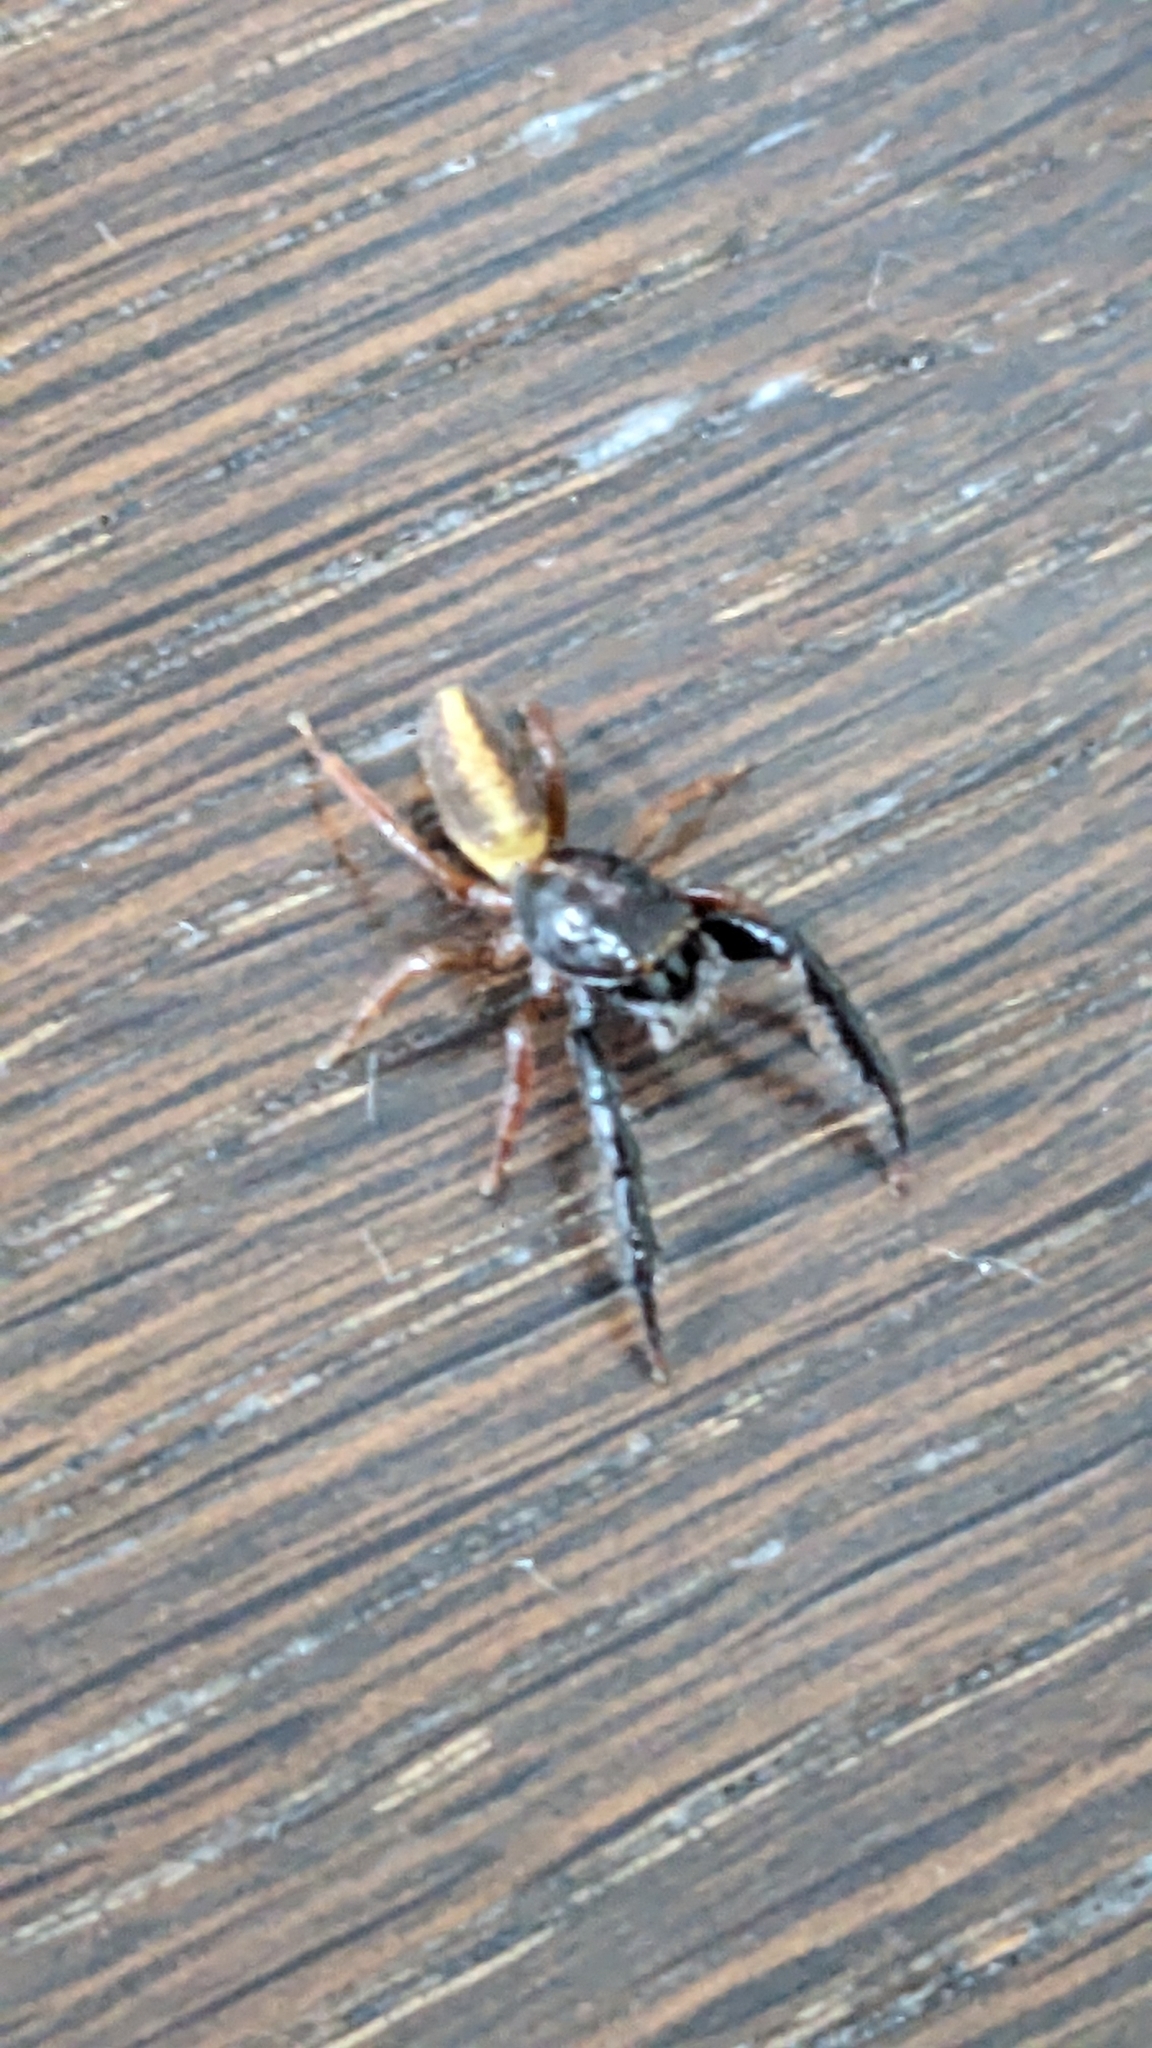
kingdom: Animalia
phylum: Arthropoda
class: Arachnida
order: Araneae
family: Salticidae
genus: Trite
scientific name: Trite planiceps
